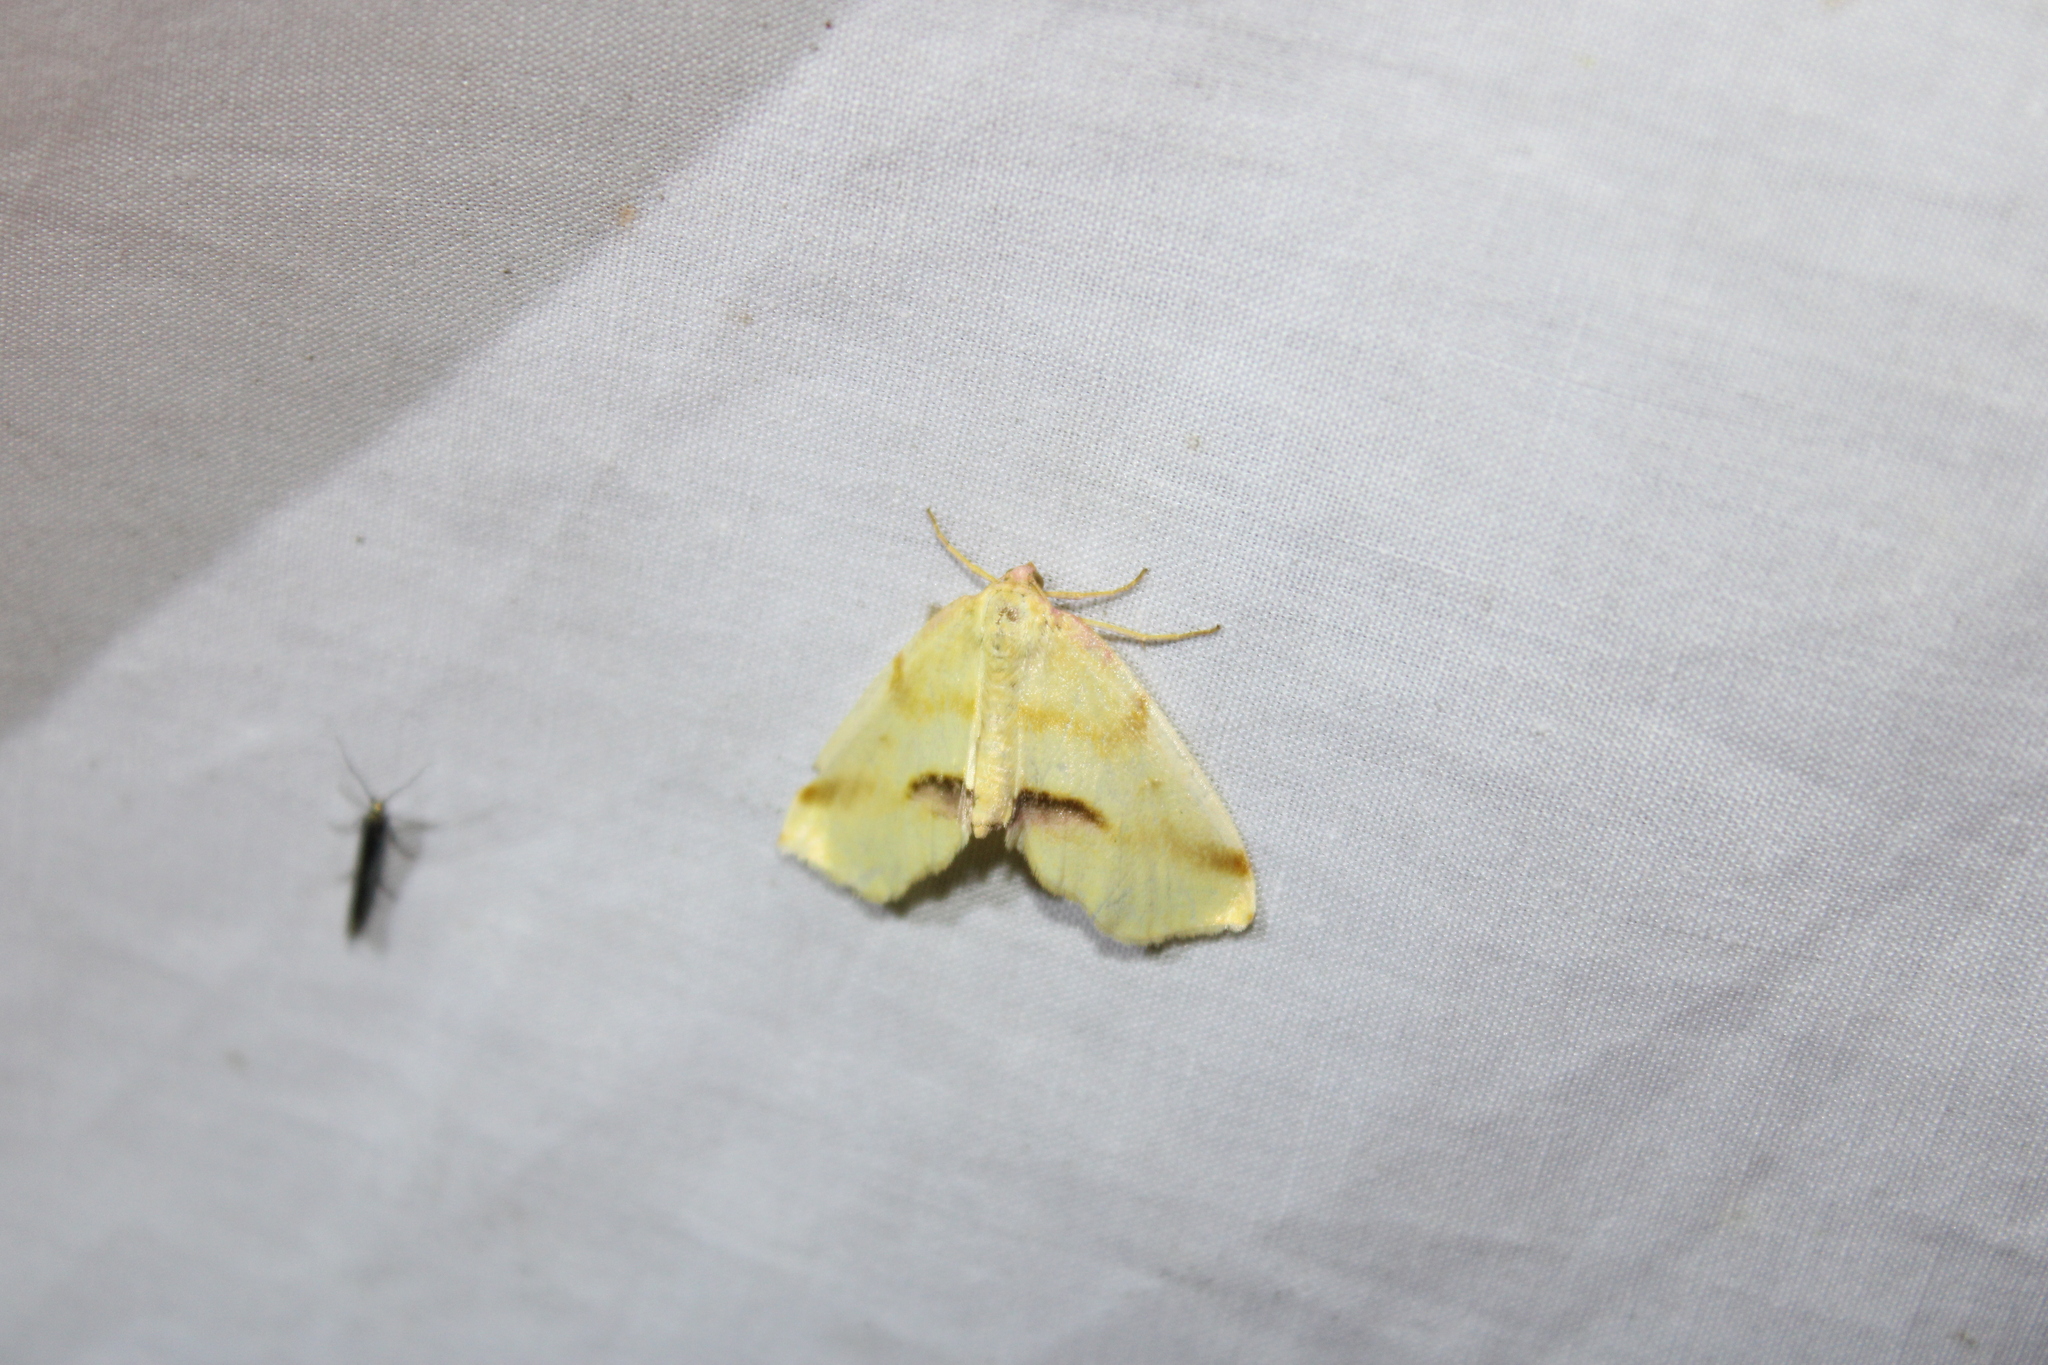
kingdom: Animalia
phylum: Arthropoda
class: Insecta
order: Lepidoptera
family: Geometridae
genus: Plagodis
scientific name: Plagodis serinaria
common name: Lemon plagodis
